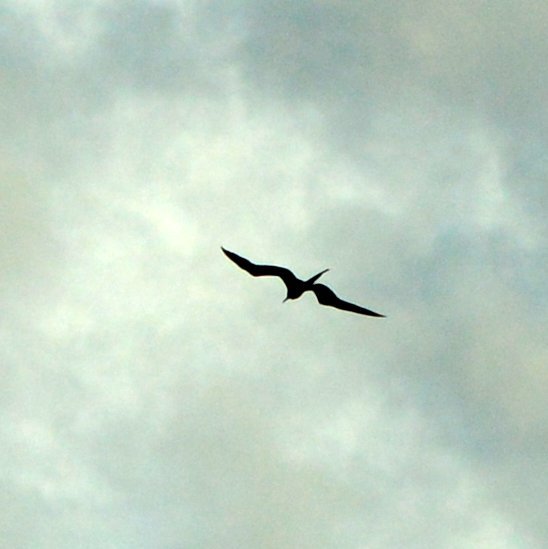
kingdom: Animalia
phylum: Chordata
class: Aves
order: Suliformes
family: Fregatidae
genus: Fregata
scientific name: Fregata magnificens
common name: Magnificent frigatebird
